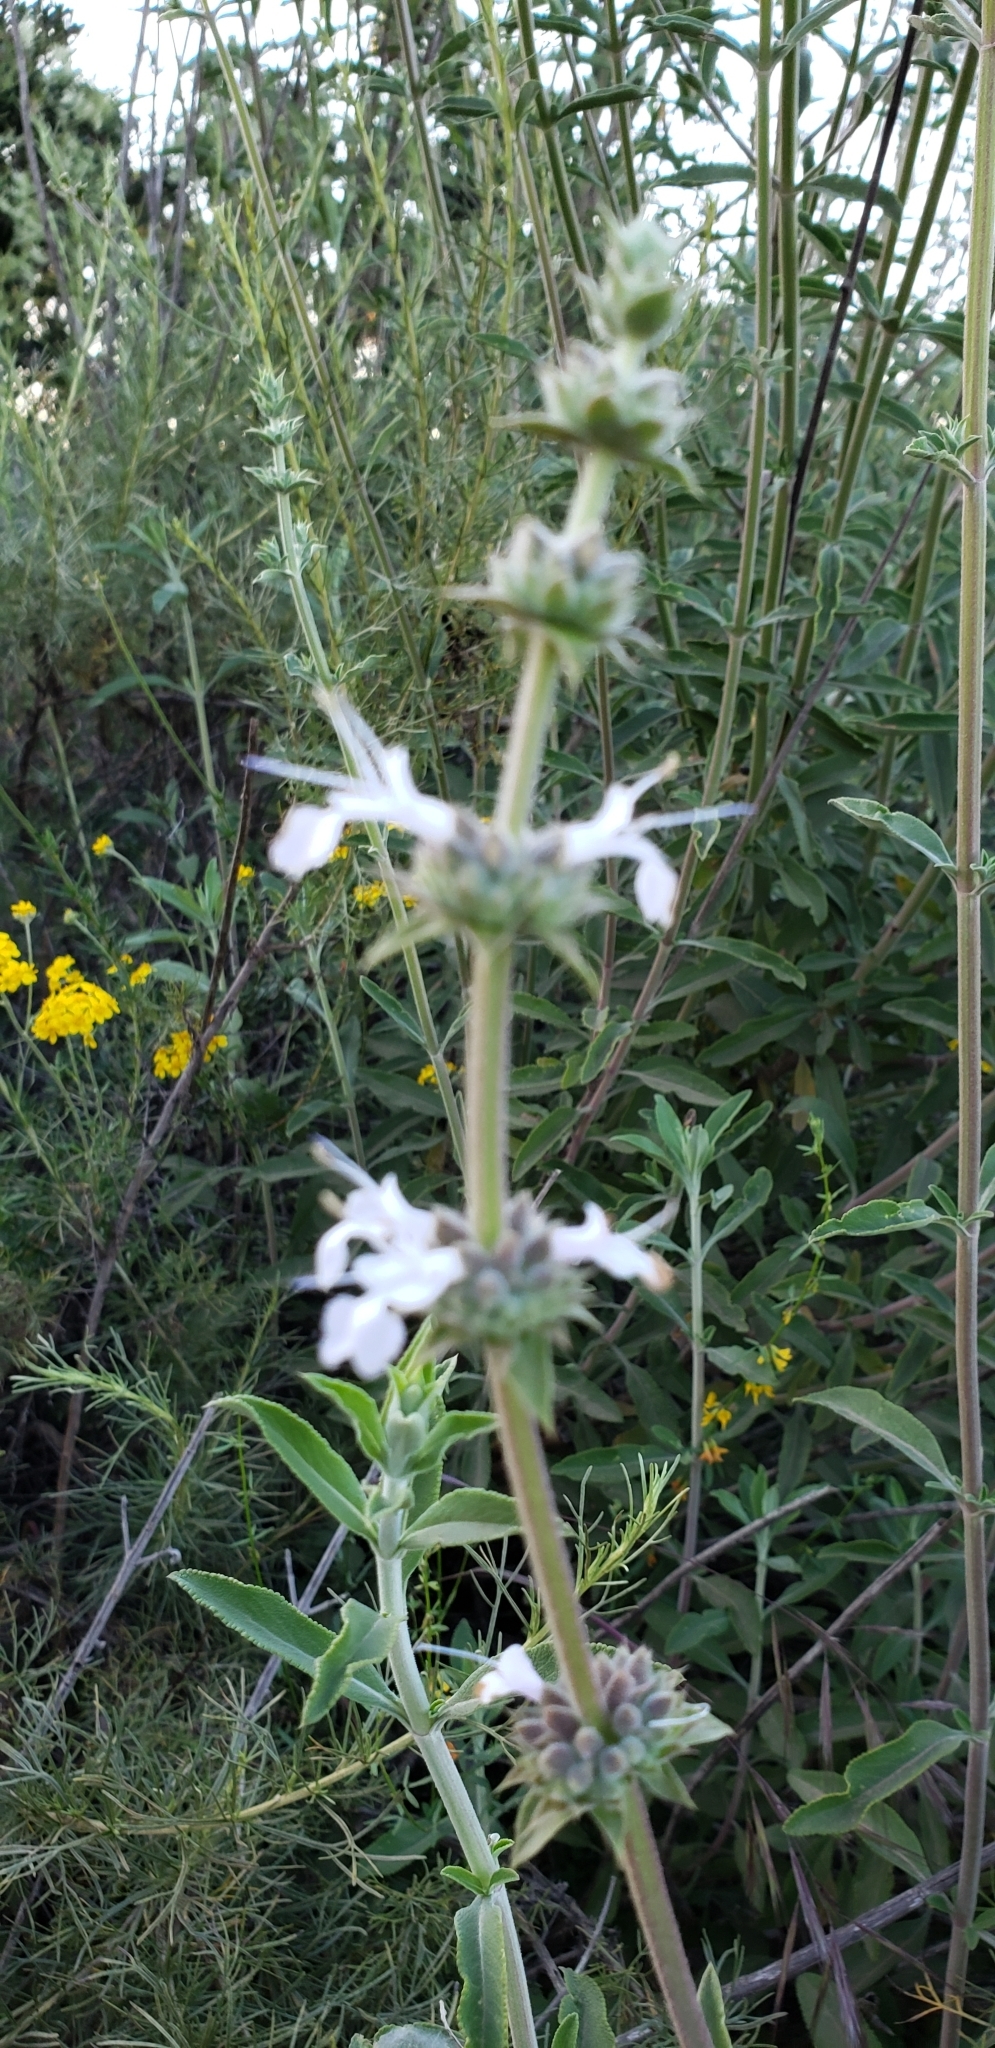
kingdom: Plantae
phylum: Tracheophyta
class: Magnoliopsida
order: Lamiales
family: Lamiaceae
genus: Salvia
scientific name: Salvia apiana
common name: White sage
